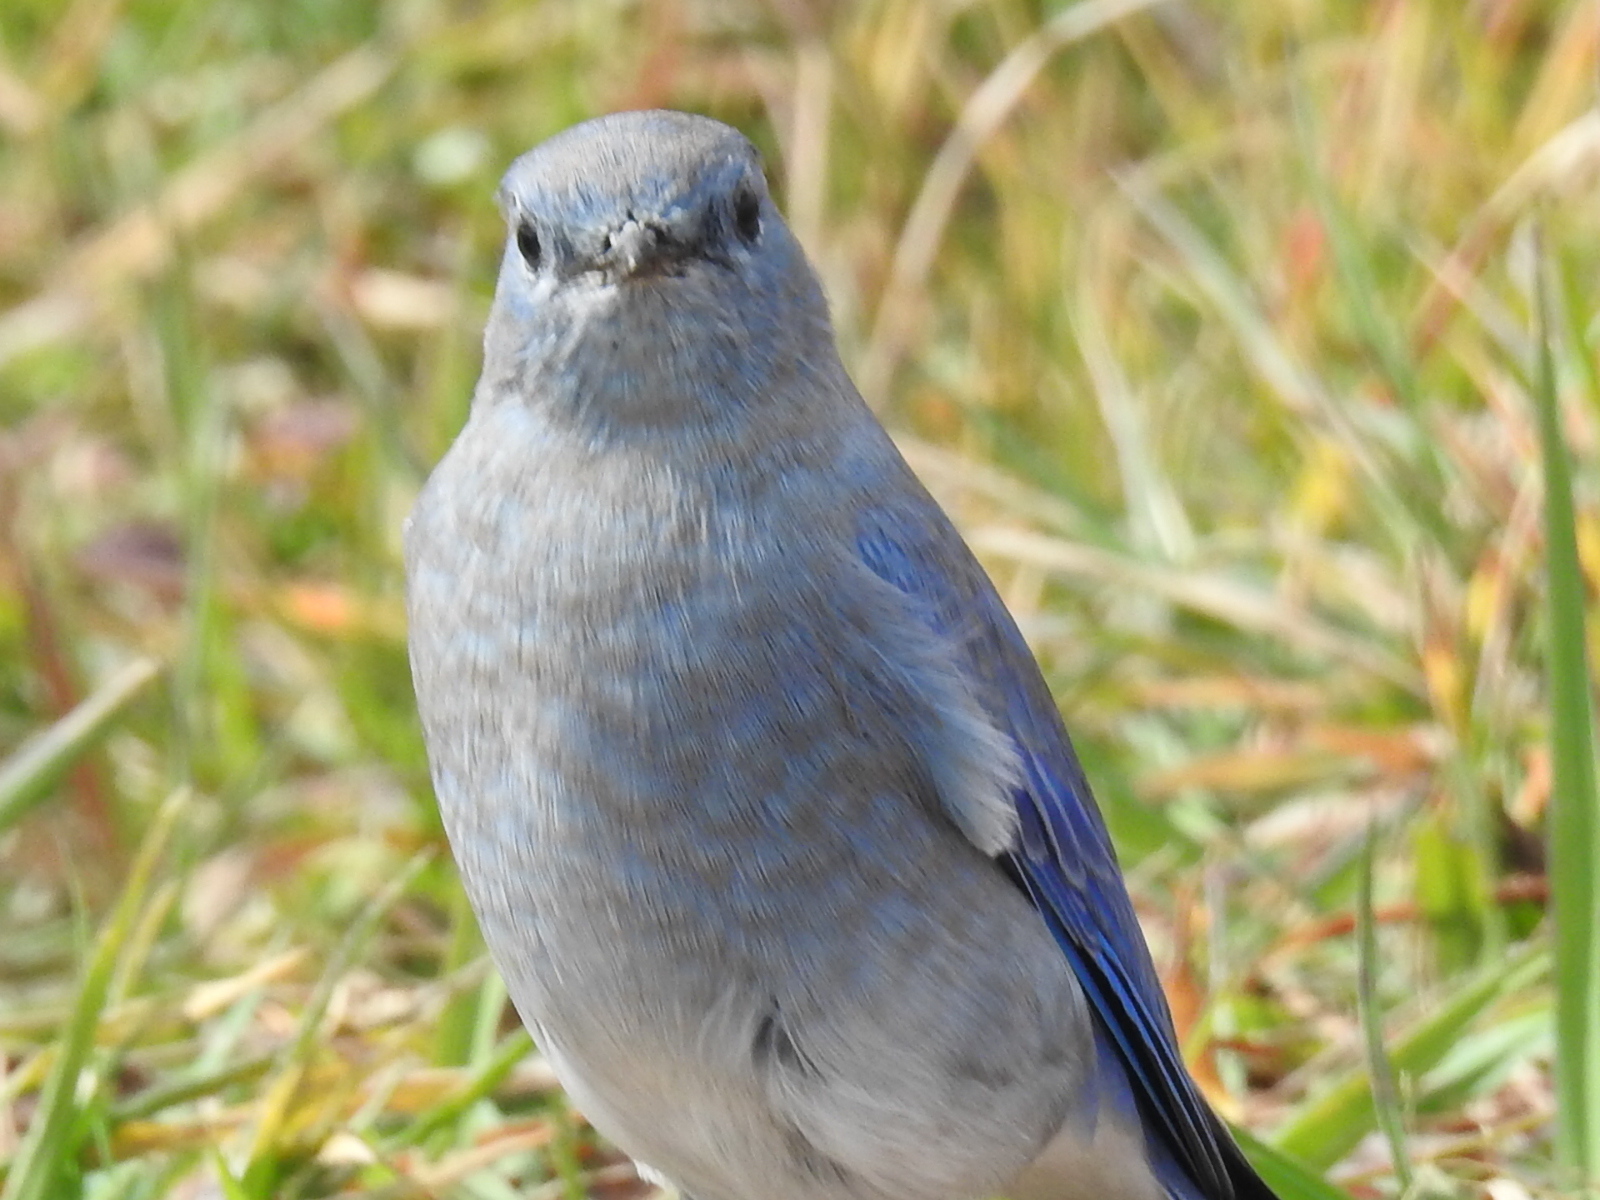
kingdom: Animalia
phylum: Chordata
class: Aves
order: Passeriformes
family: Turdidae
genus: Sialia
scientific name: Sialia currucoides
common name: Mountain bluebird
